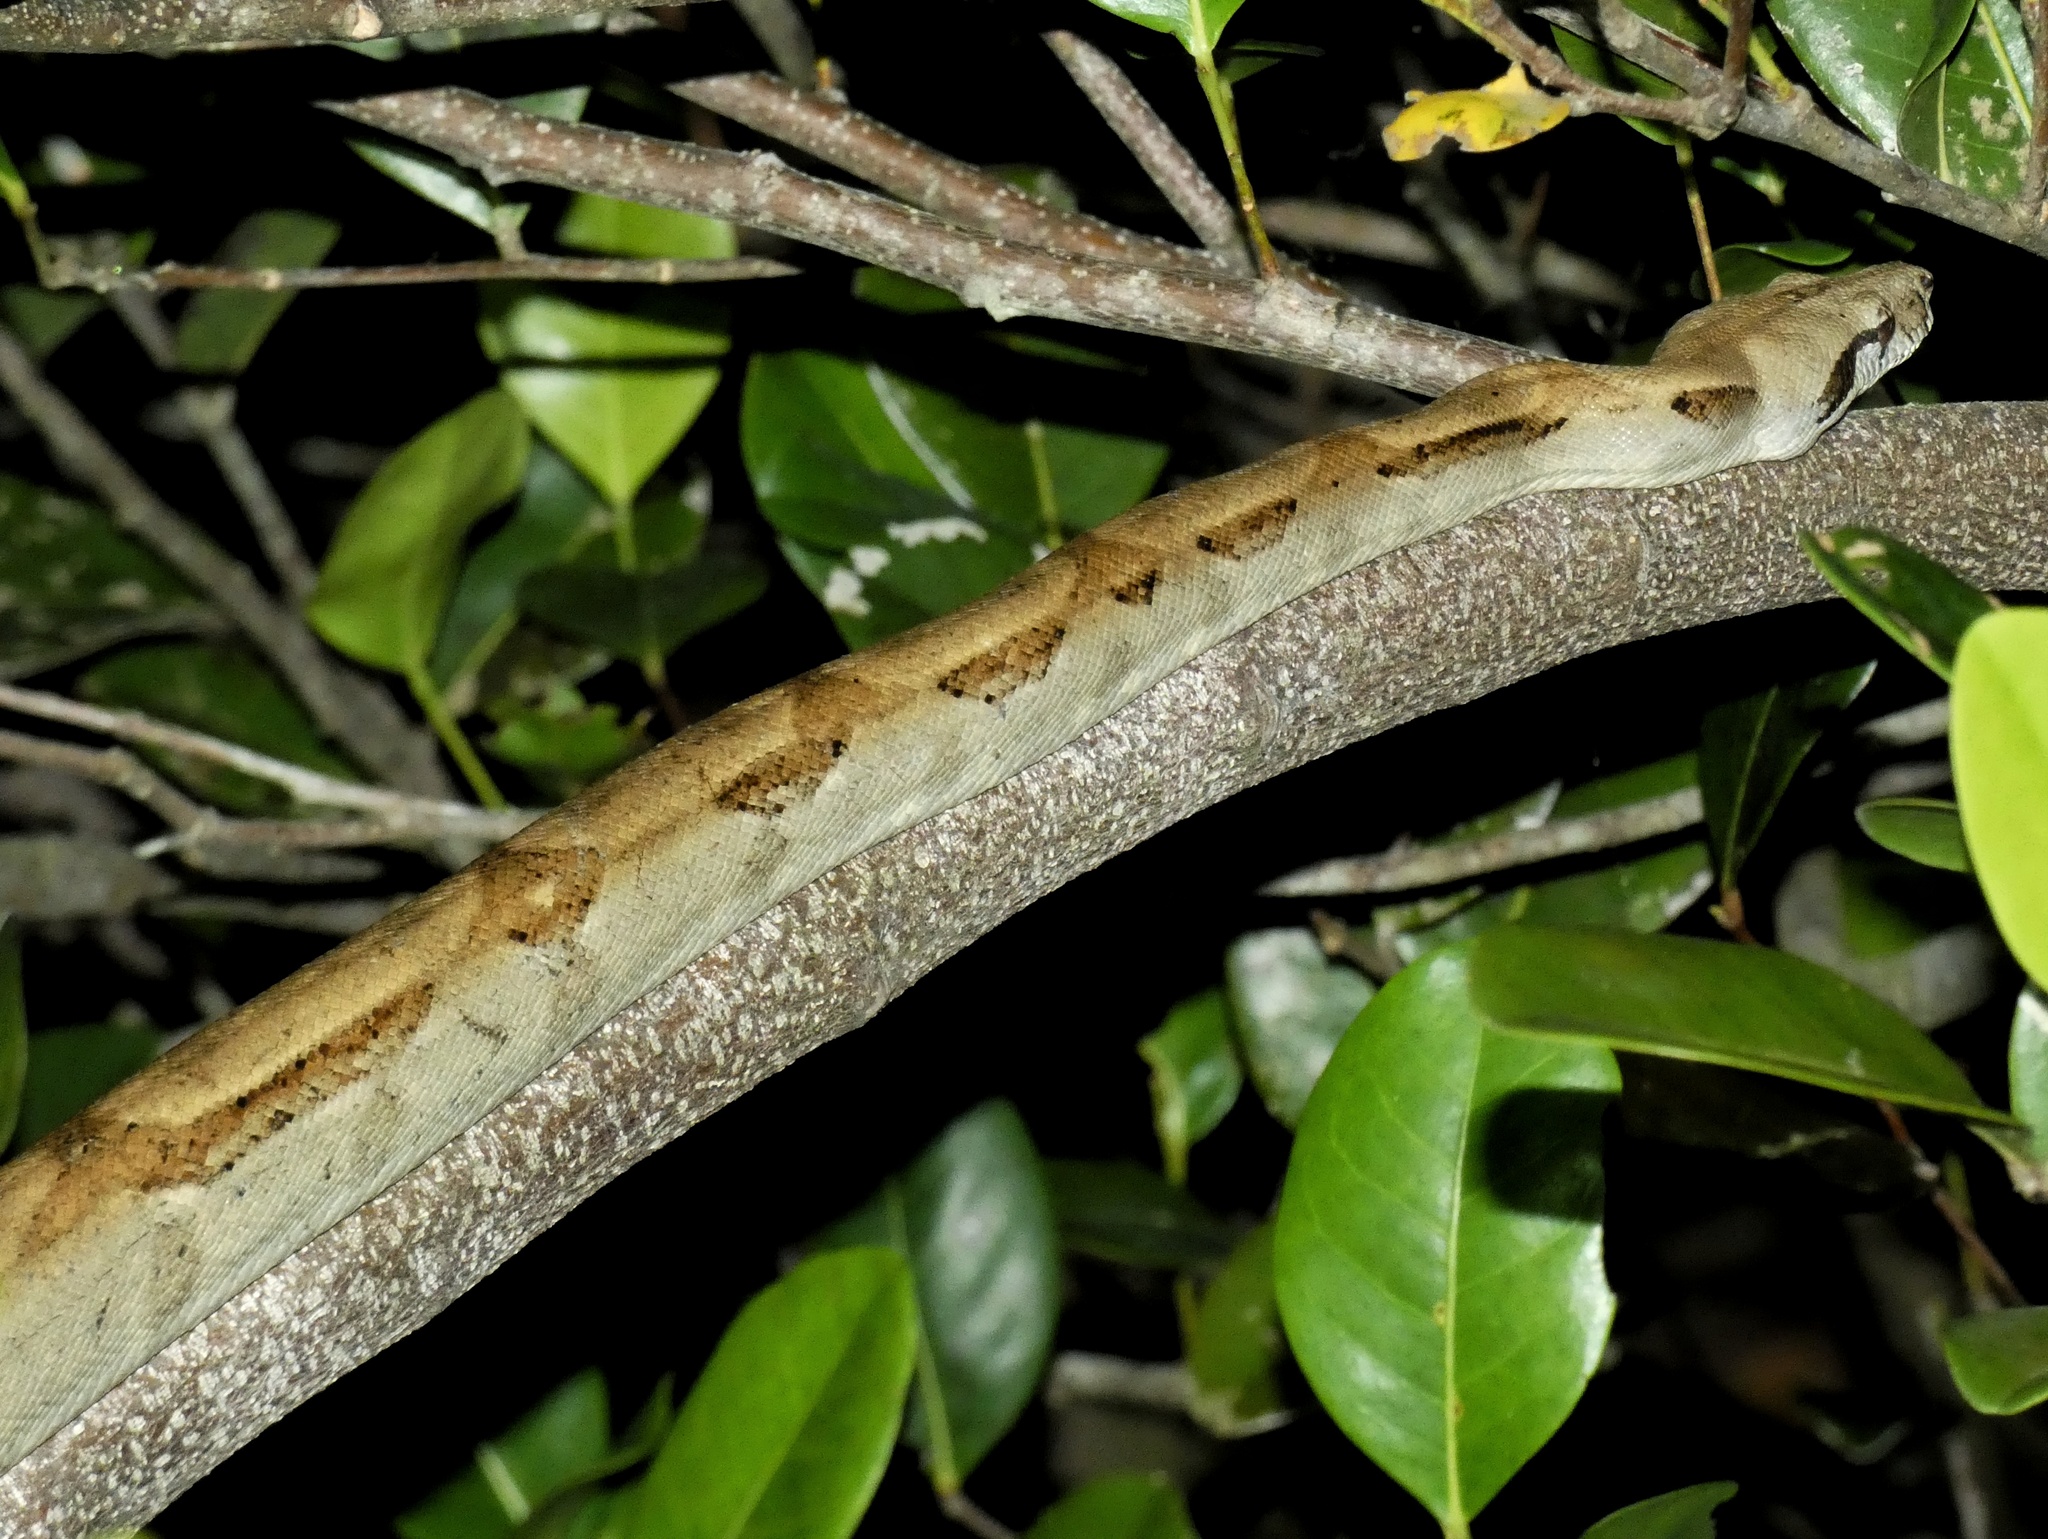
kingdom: Animalia
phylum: Chordata
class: Squamata
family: Boidae
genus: Boa
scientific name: Boa imperator
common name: Central american boa
